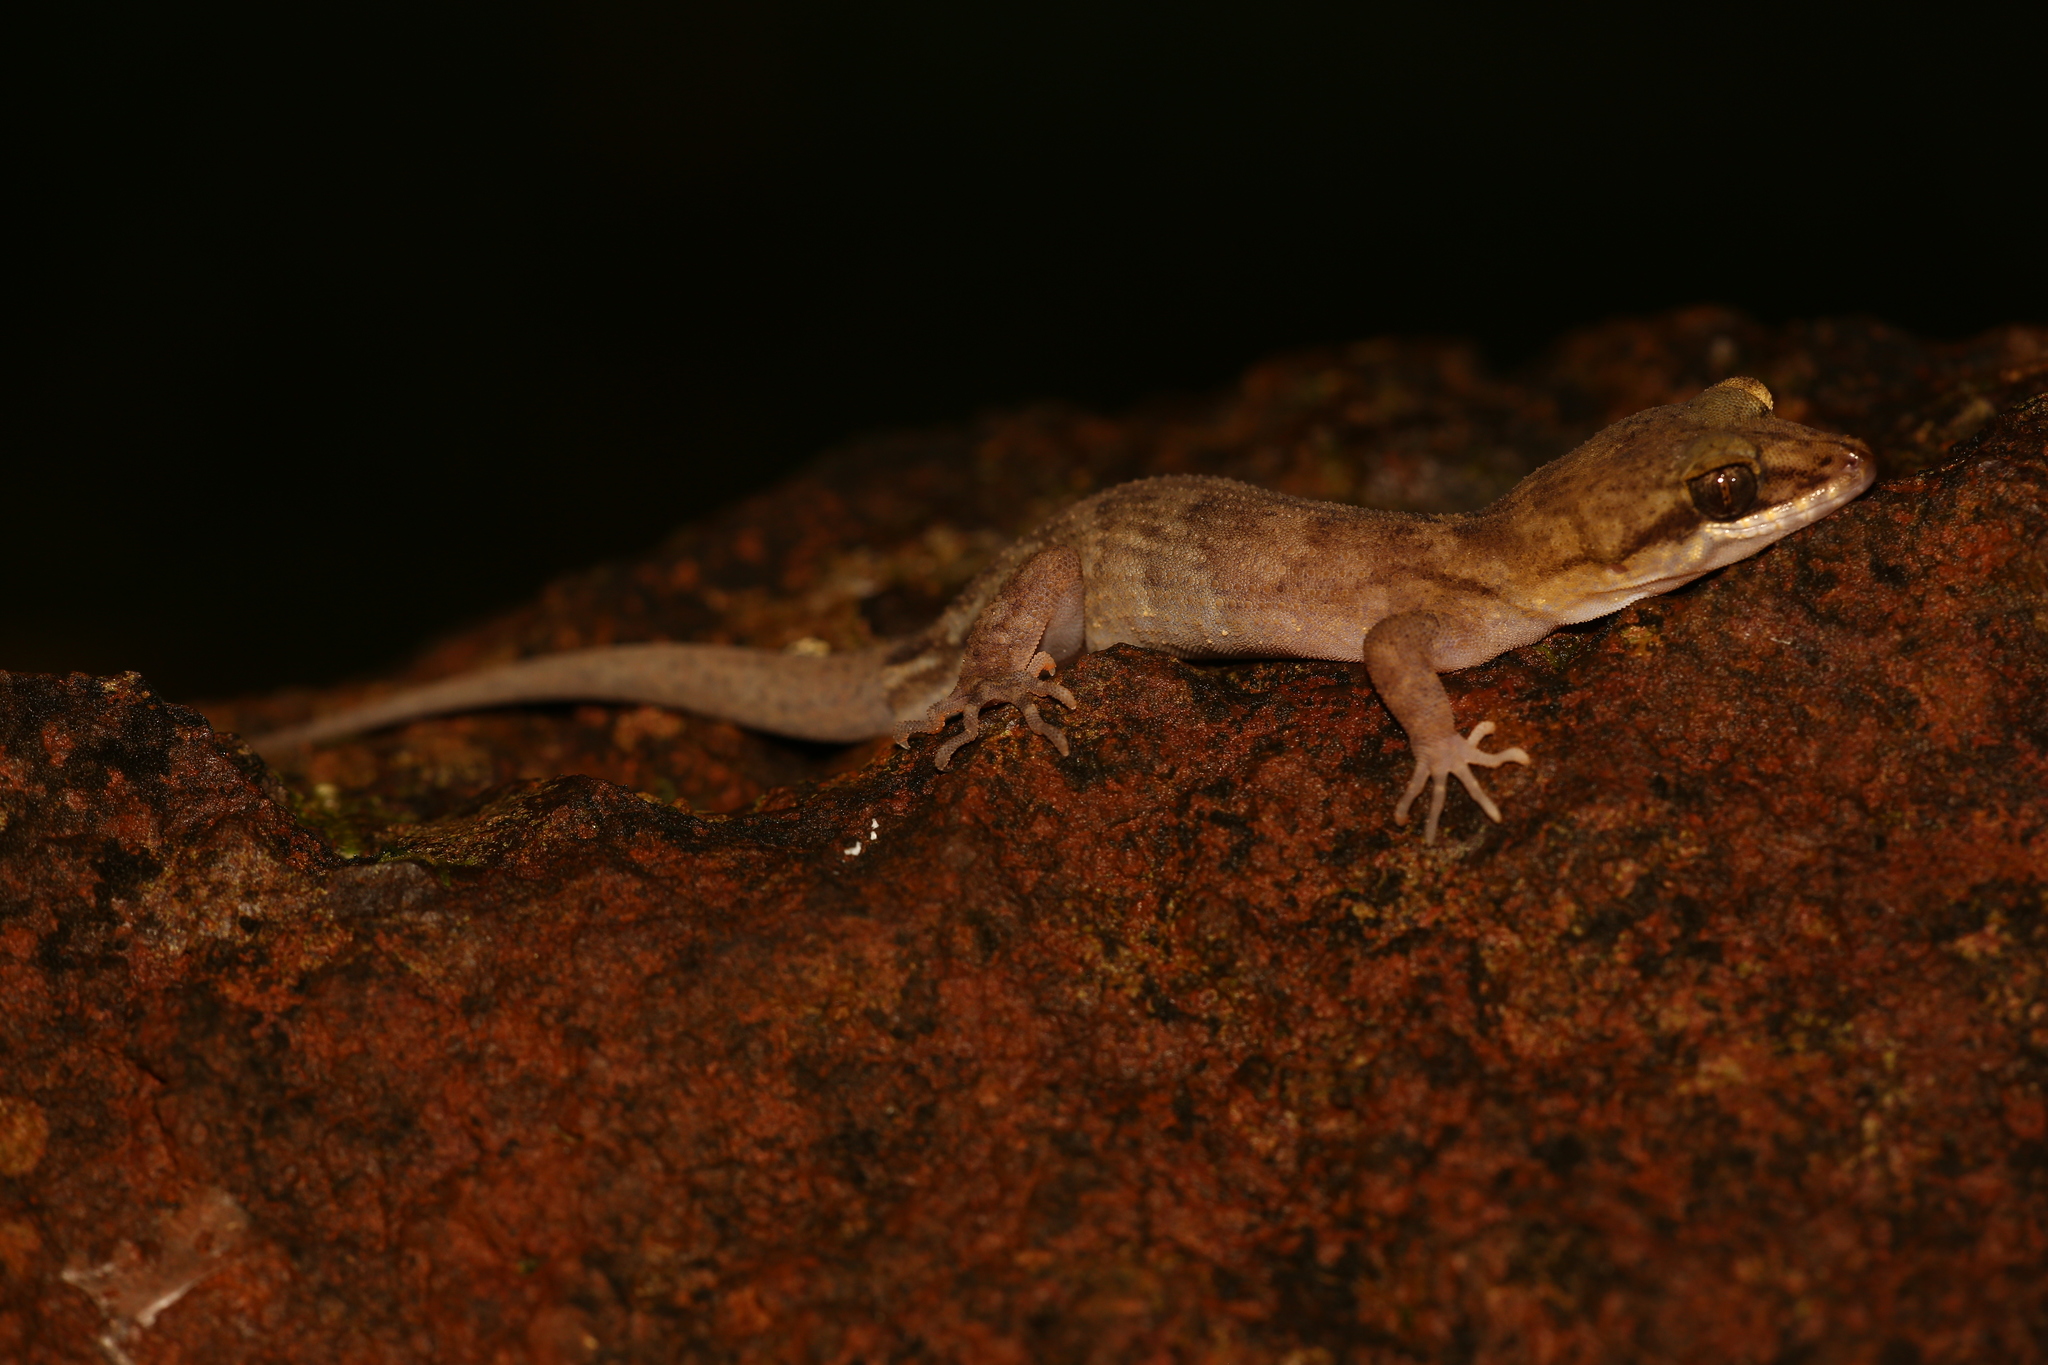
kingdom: Animalia
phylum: Chordata
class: Squamata
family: Gekkonidae
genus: Nactus
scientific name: Nactus pelagicus
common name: Pelagic gecko
